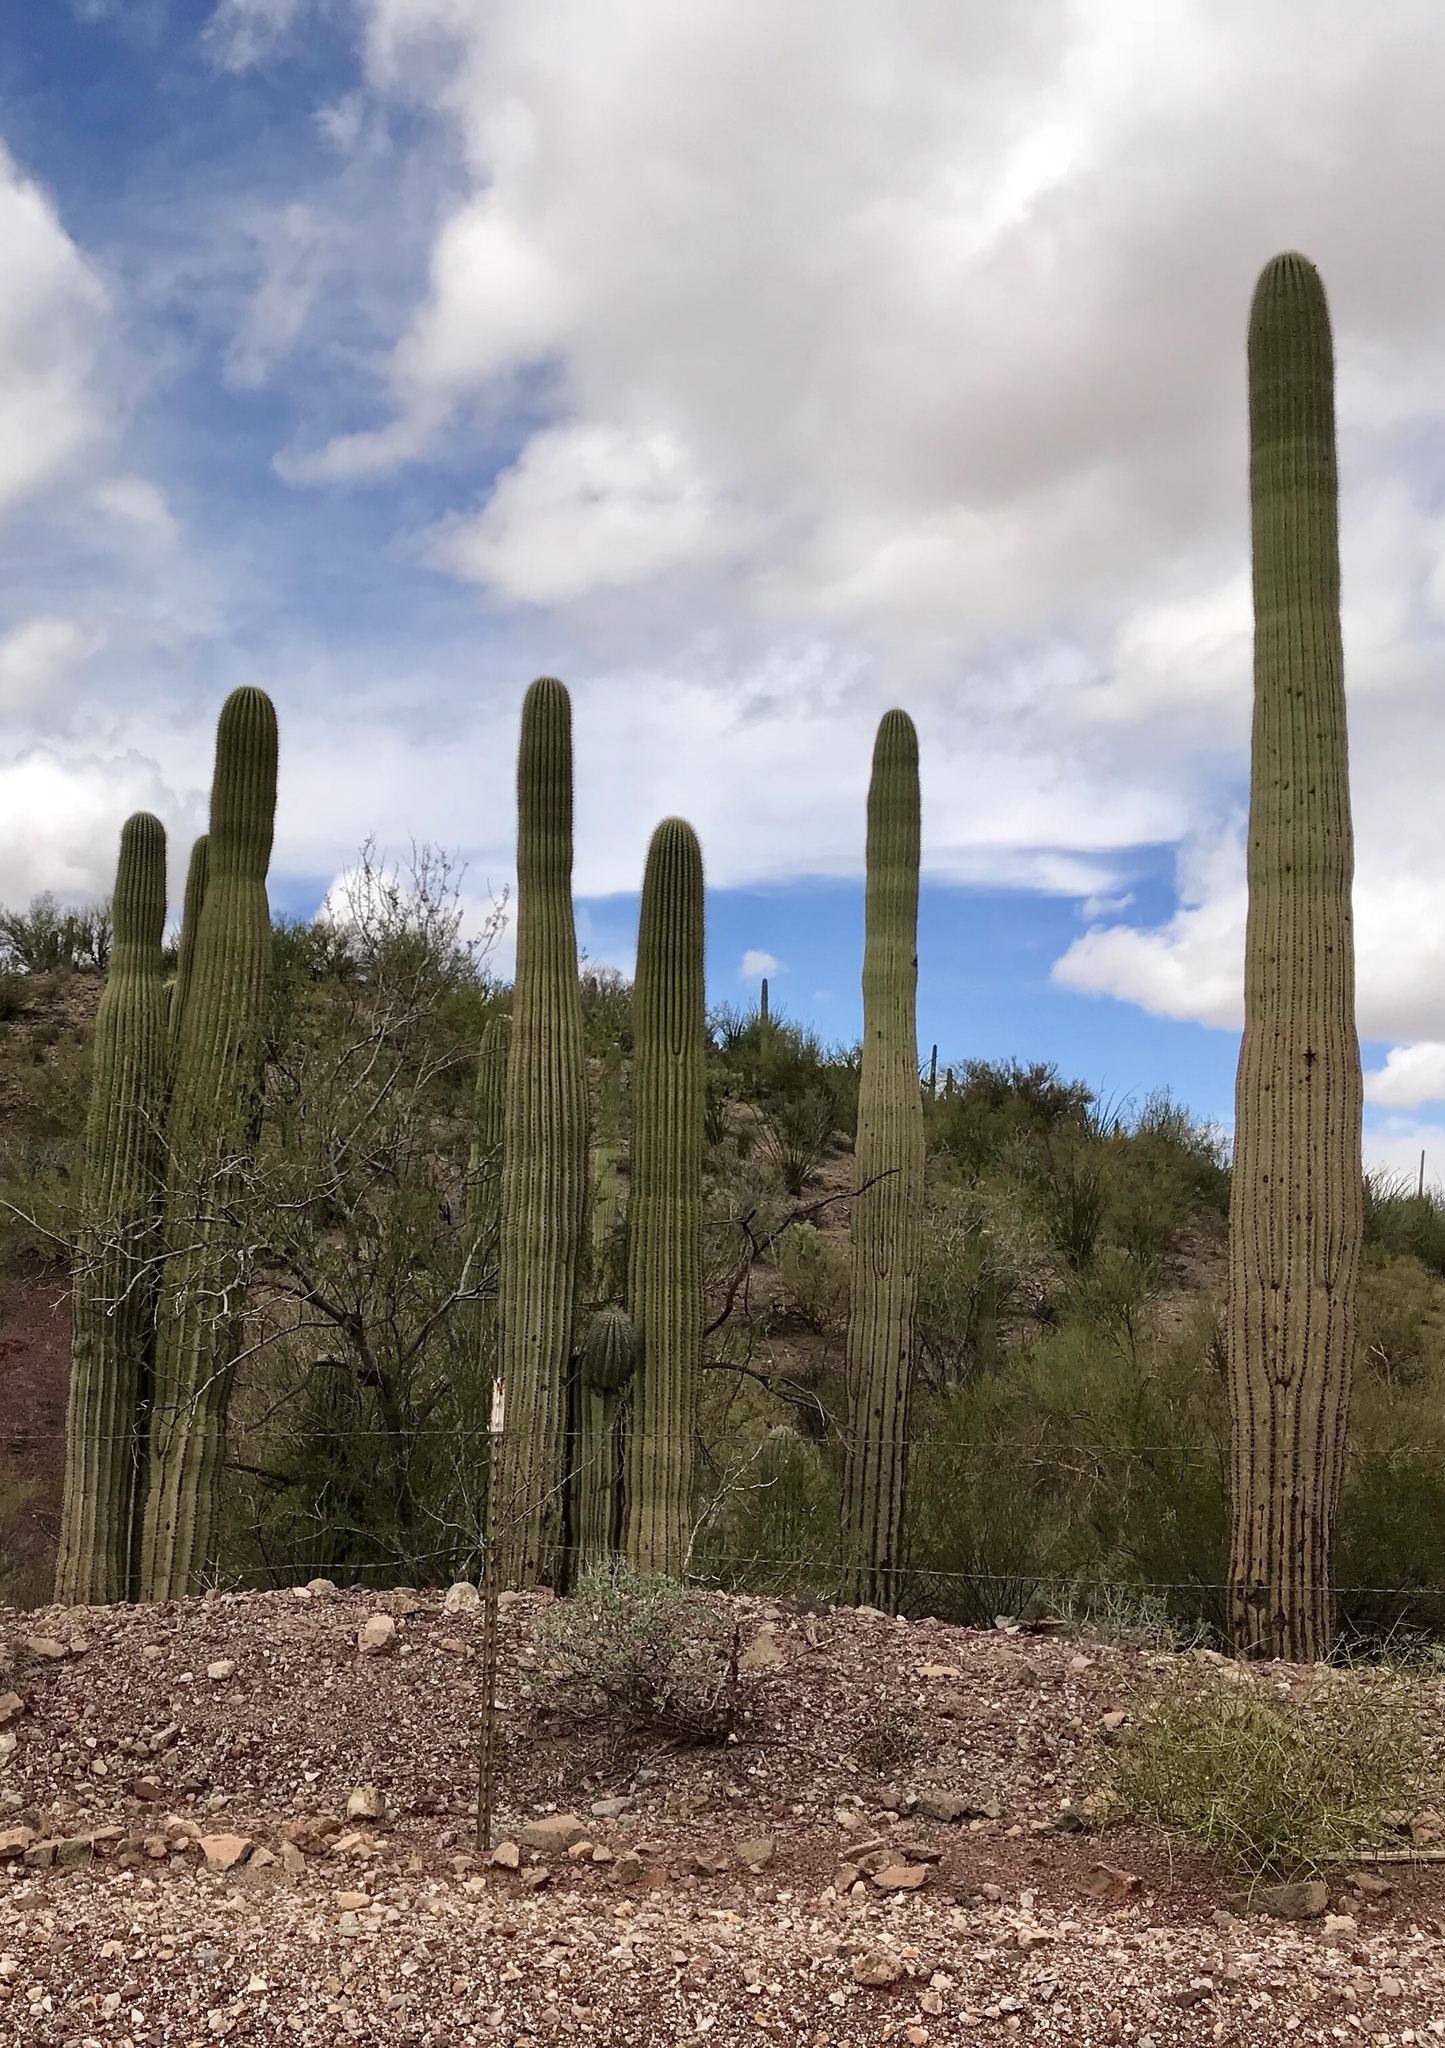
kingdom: Plantae
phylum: Tracheophyta
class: Magnoliopsida
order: Caryophyllales
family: Cactaceae
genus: Carnegiea
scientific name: Carnegiea gigantea
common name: Saguaro
